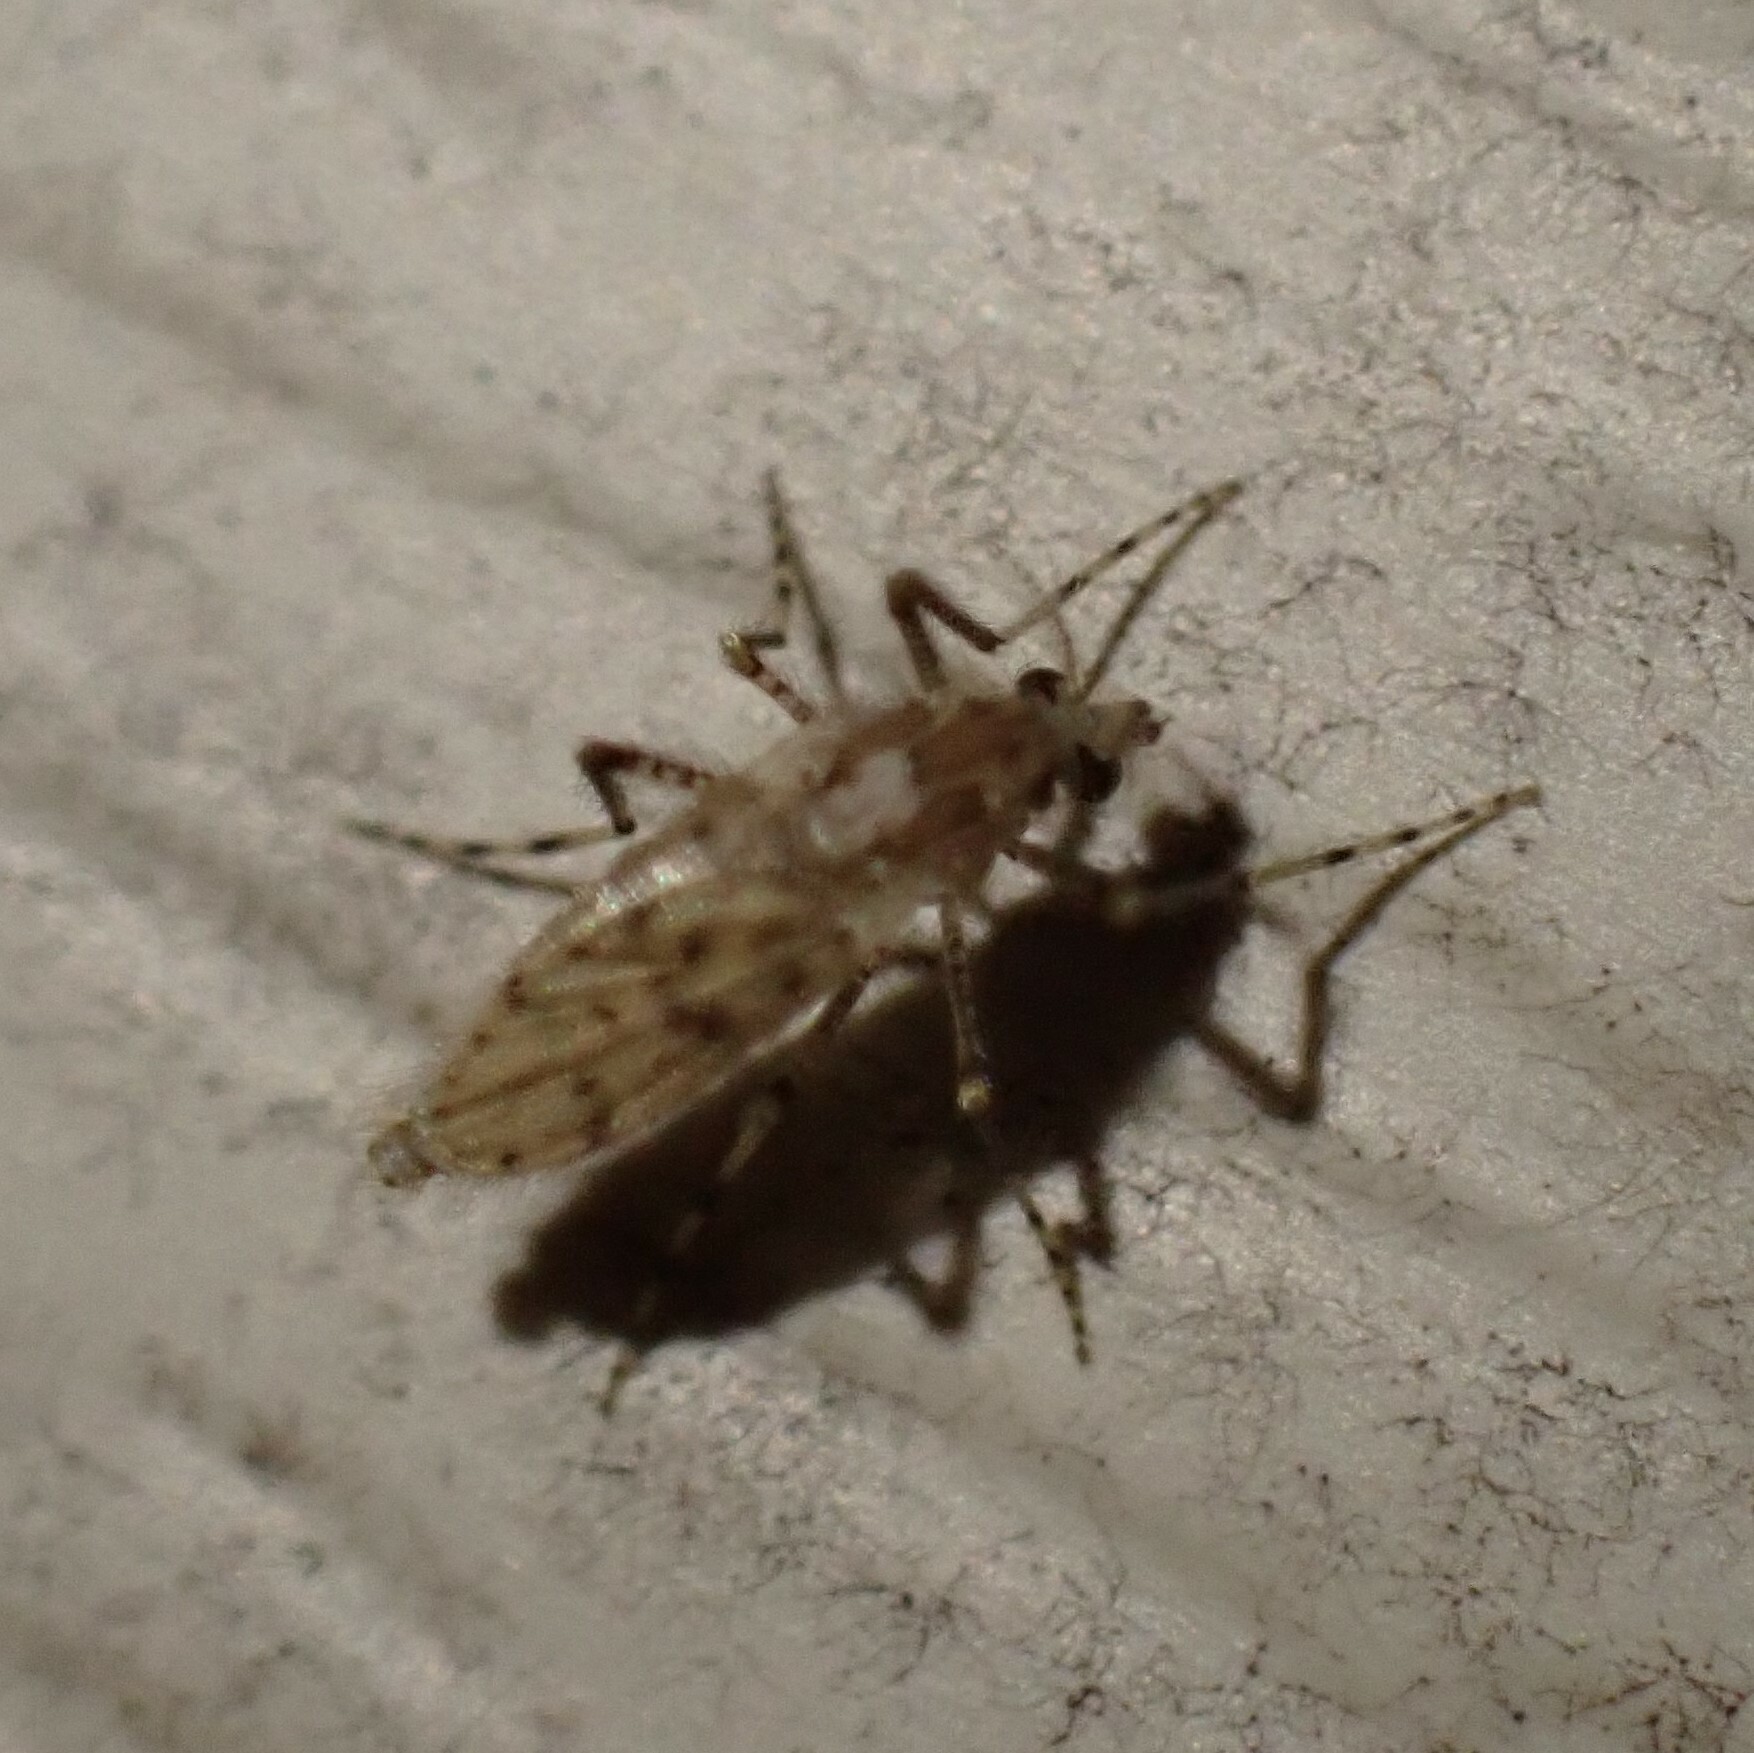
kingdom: Animalia
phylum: Arthropoda
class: Insecta
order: Diptera
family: Chaoboridae
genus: Chaoborus
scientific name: Chaoborus punctipennis
